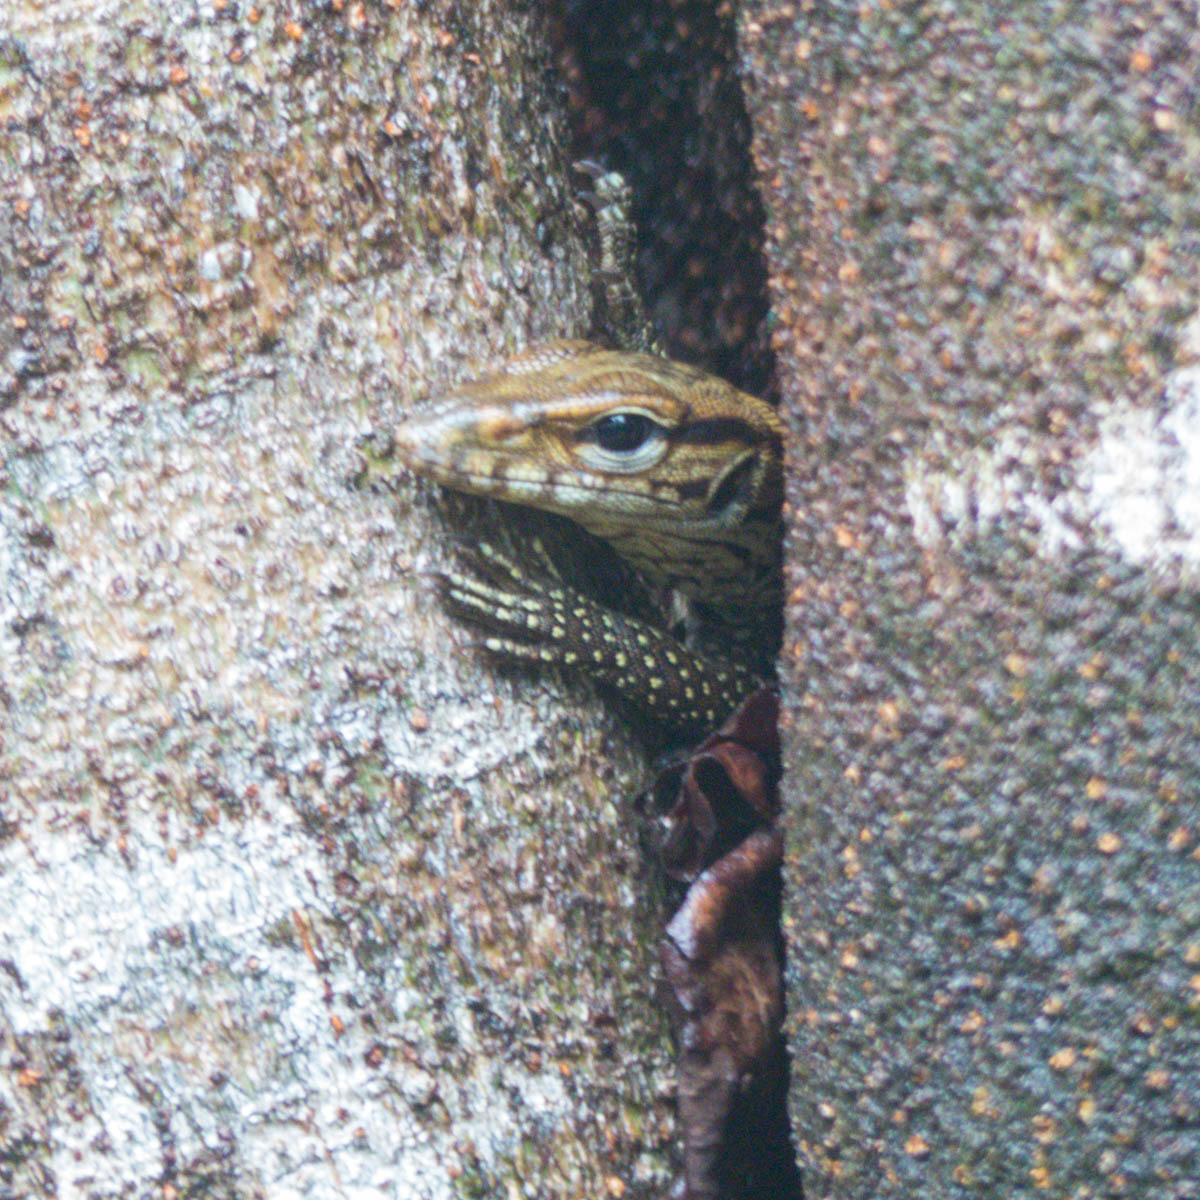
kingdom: Animalia
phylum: Chordata
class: Squamata
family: Varanidae
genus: Varanus
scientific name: Varanus nebulosus
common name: Clouded monitor
